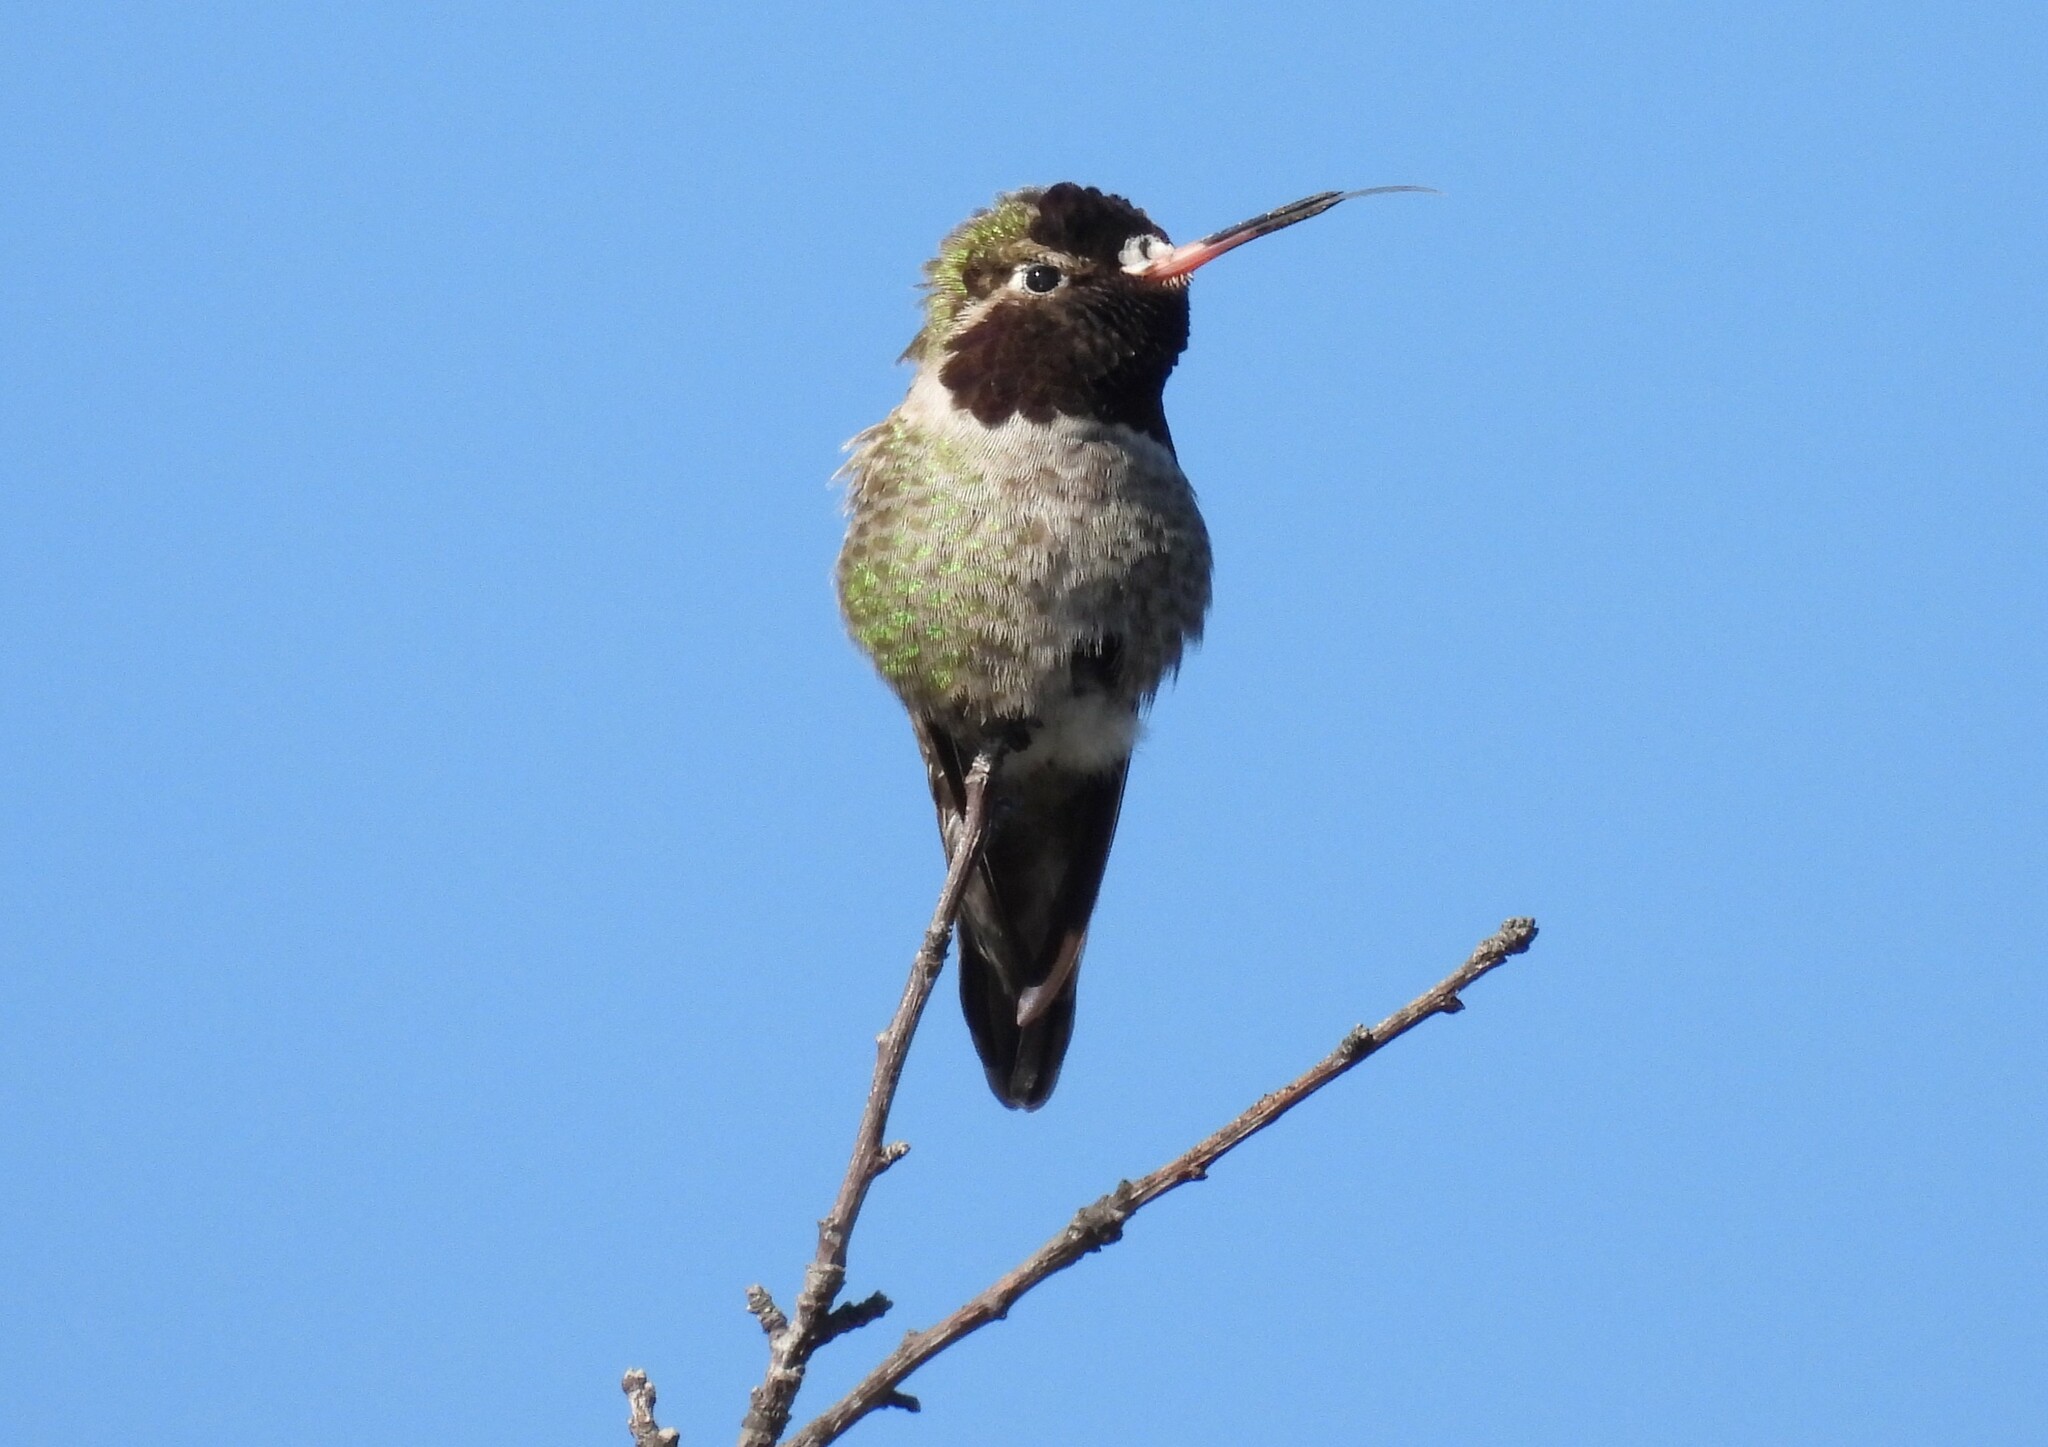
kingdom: Animalia
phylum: Chordata
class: Aves
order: Apodiformes
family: Trochilidae
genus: Calypte
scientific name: Calypte anna
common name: Anna's hummingbird
